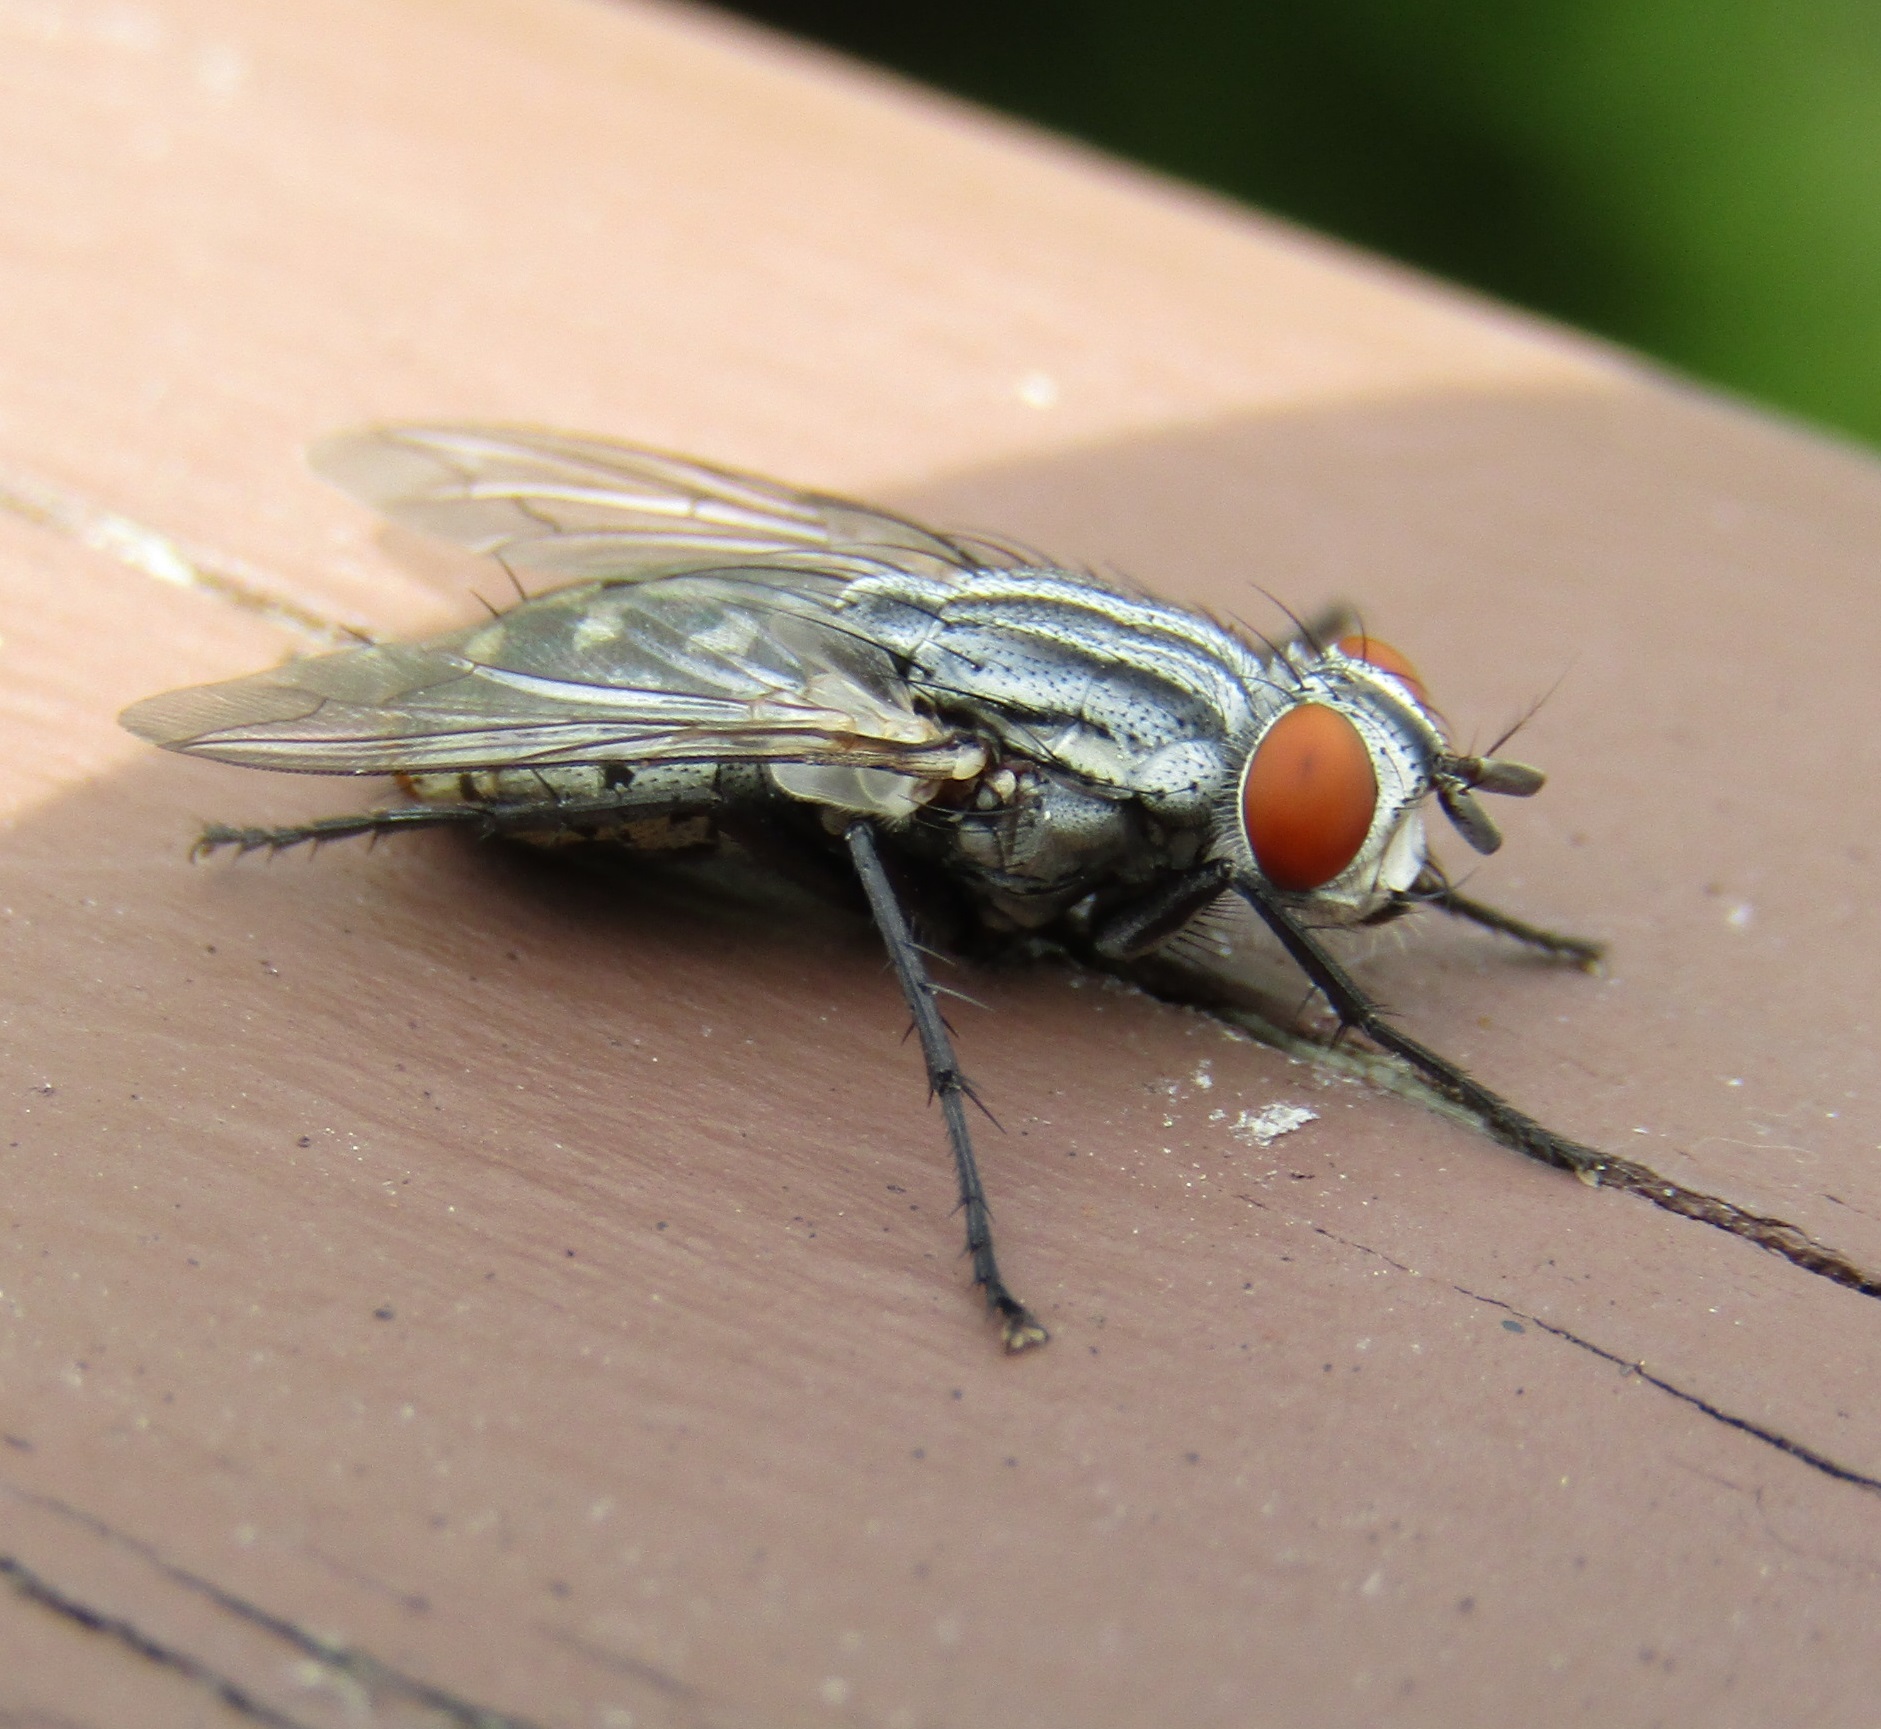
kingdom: Animalia
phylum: Arthropoda
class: Insecta
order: Diptera
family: Sarcophagidae
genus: Sarcophaga
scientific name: Sarcophaga crassipalpis
